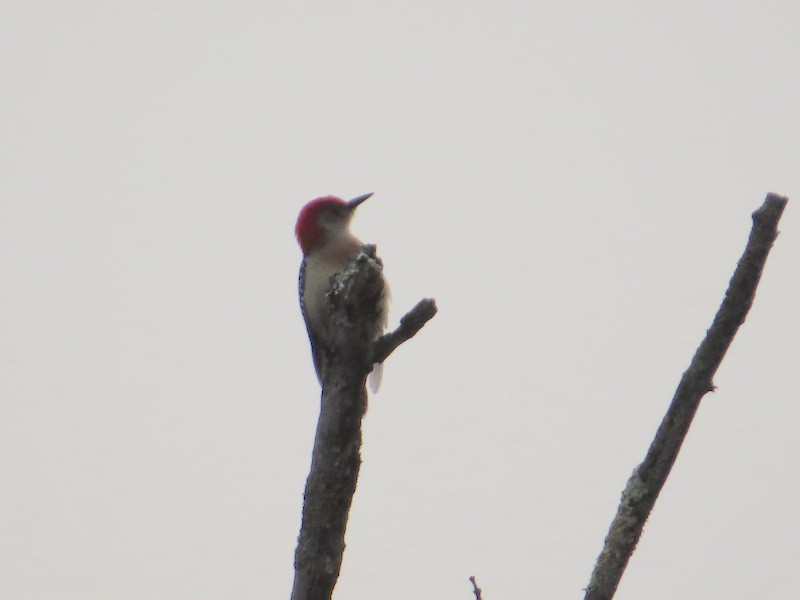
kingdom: Animalia
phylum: Chordata
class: Aves
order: Piciformes
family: Picidae
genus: Melanerpes
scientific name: Melanerpes carolinus
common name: Red-bellied woodpecker
